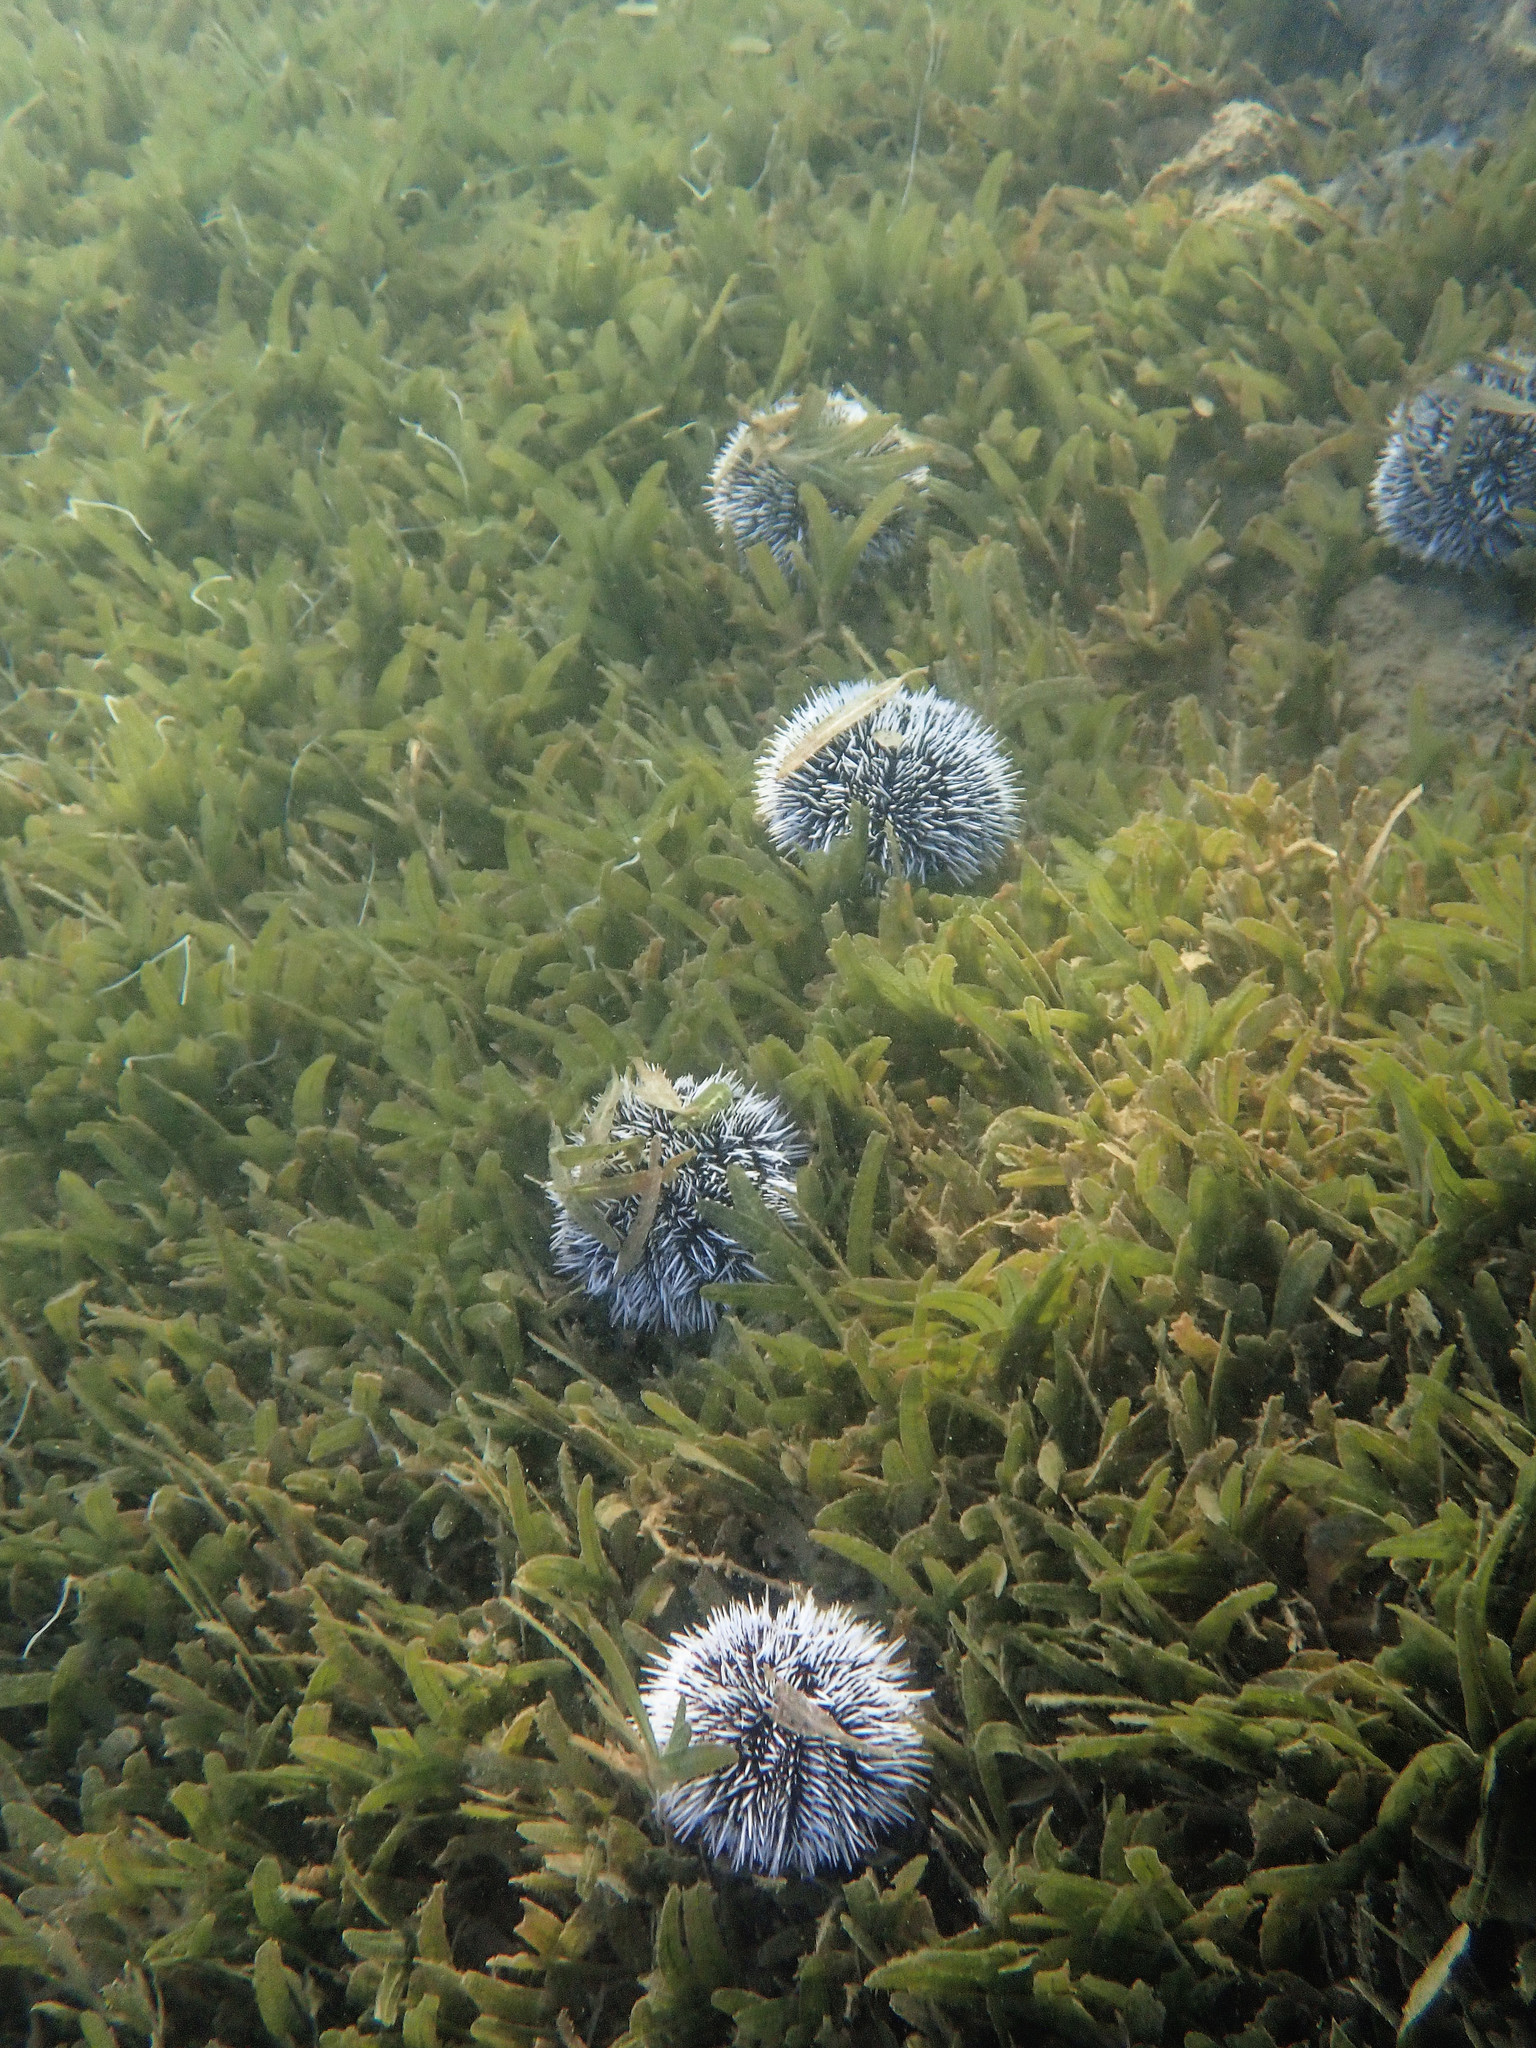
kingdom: Animalia
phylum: Echinodermata
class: Echinoidea
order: Camarodonta
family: Toxopneustidae
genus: Tripneustes
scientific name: Tripneustes ventricosus
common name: West indian sea egg
